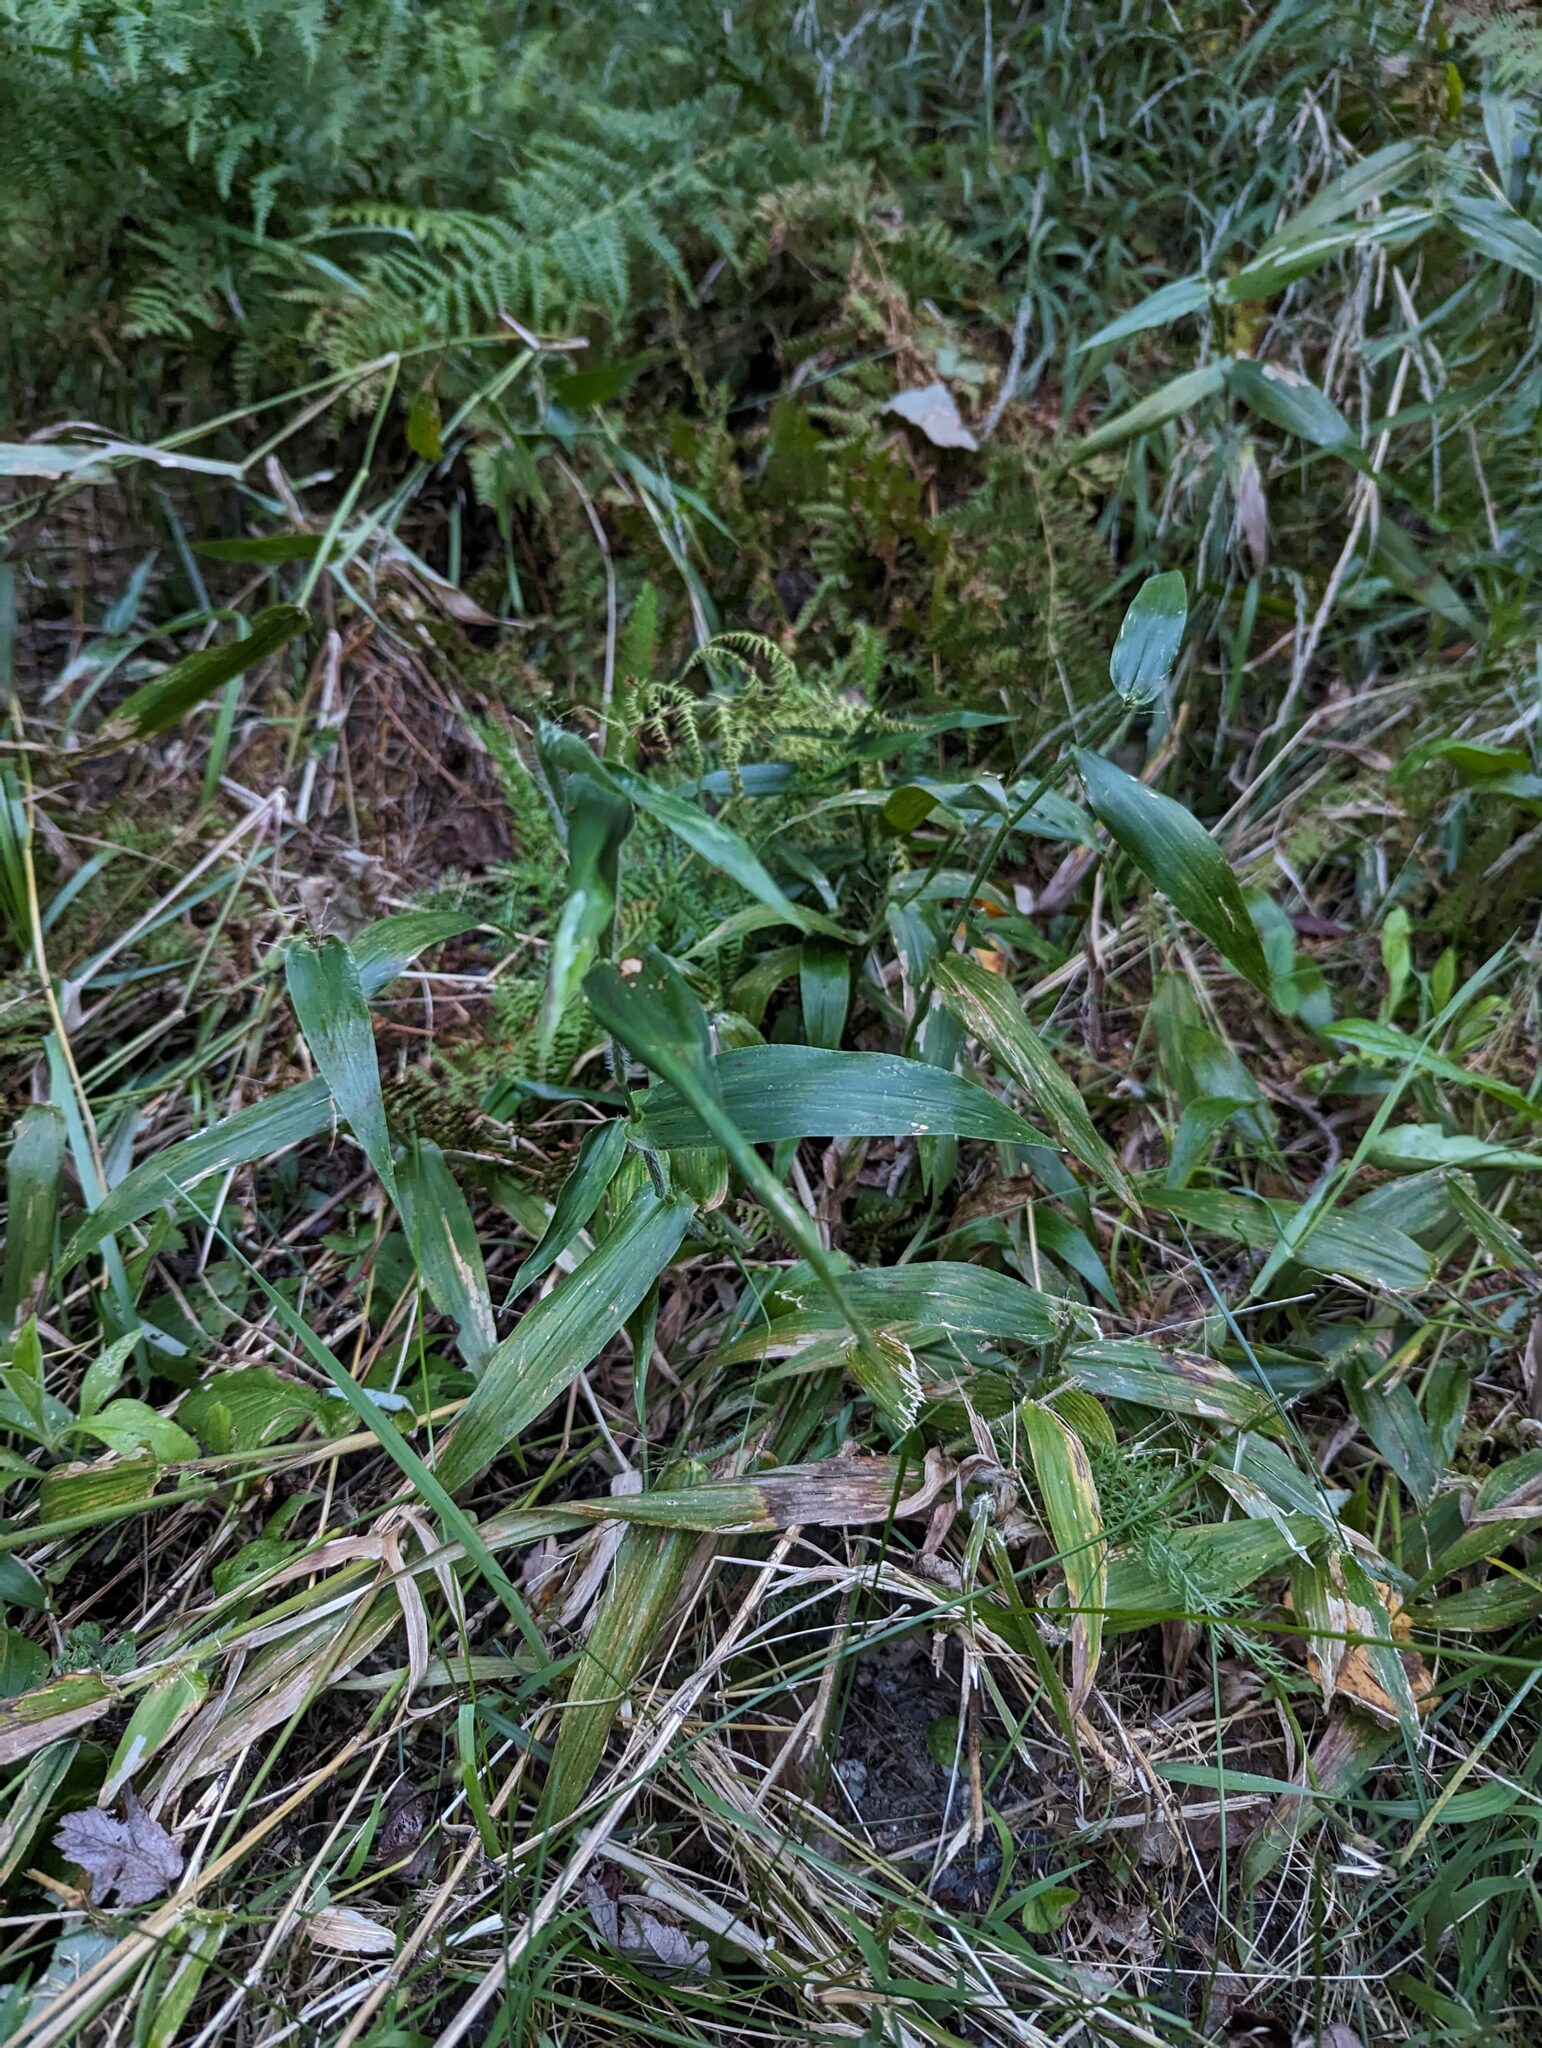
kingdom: Plantae
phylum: Tracheophyta
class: Liliopsida
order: Poales
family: Poaceae
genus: Dichanthelium
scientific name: Dichanthelium clandestinum
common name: Deer-tongue grass
